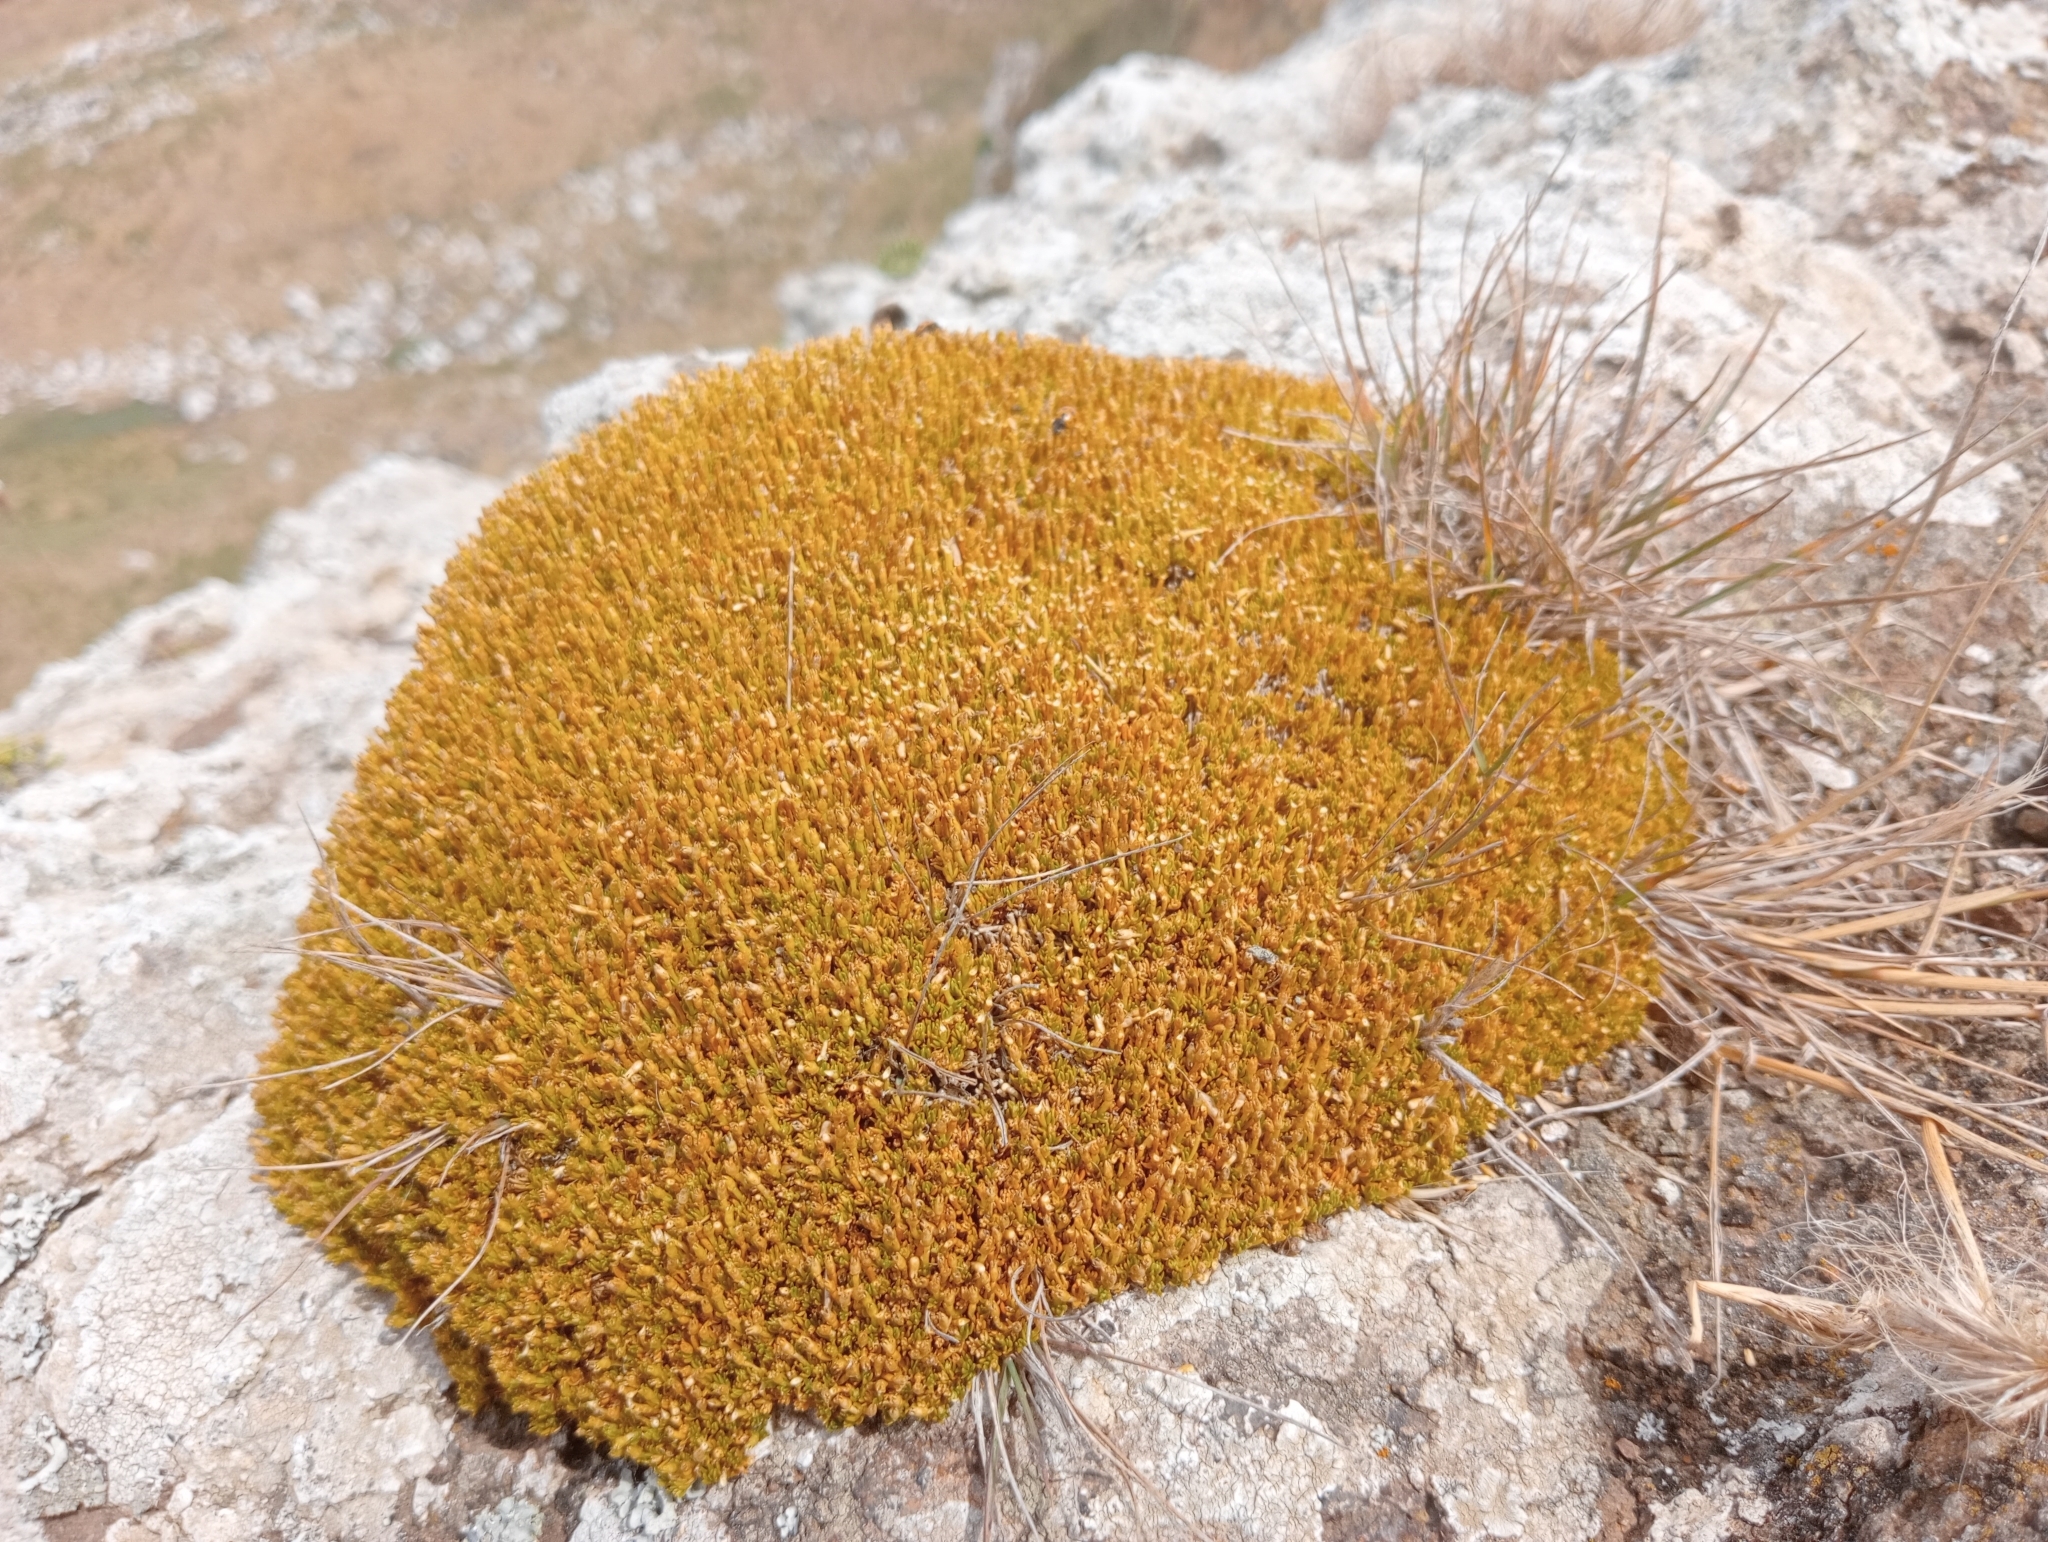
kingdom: Plantae
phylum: Tracheophyta
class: Magnoliopsida
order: Caryophyllales
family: Caryophyllaceae
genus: Scleranthus
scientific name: Scleranthus uniflorus
